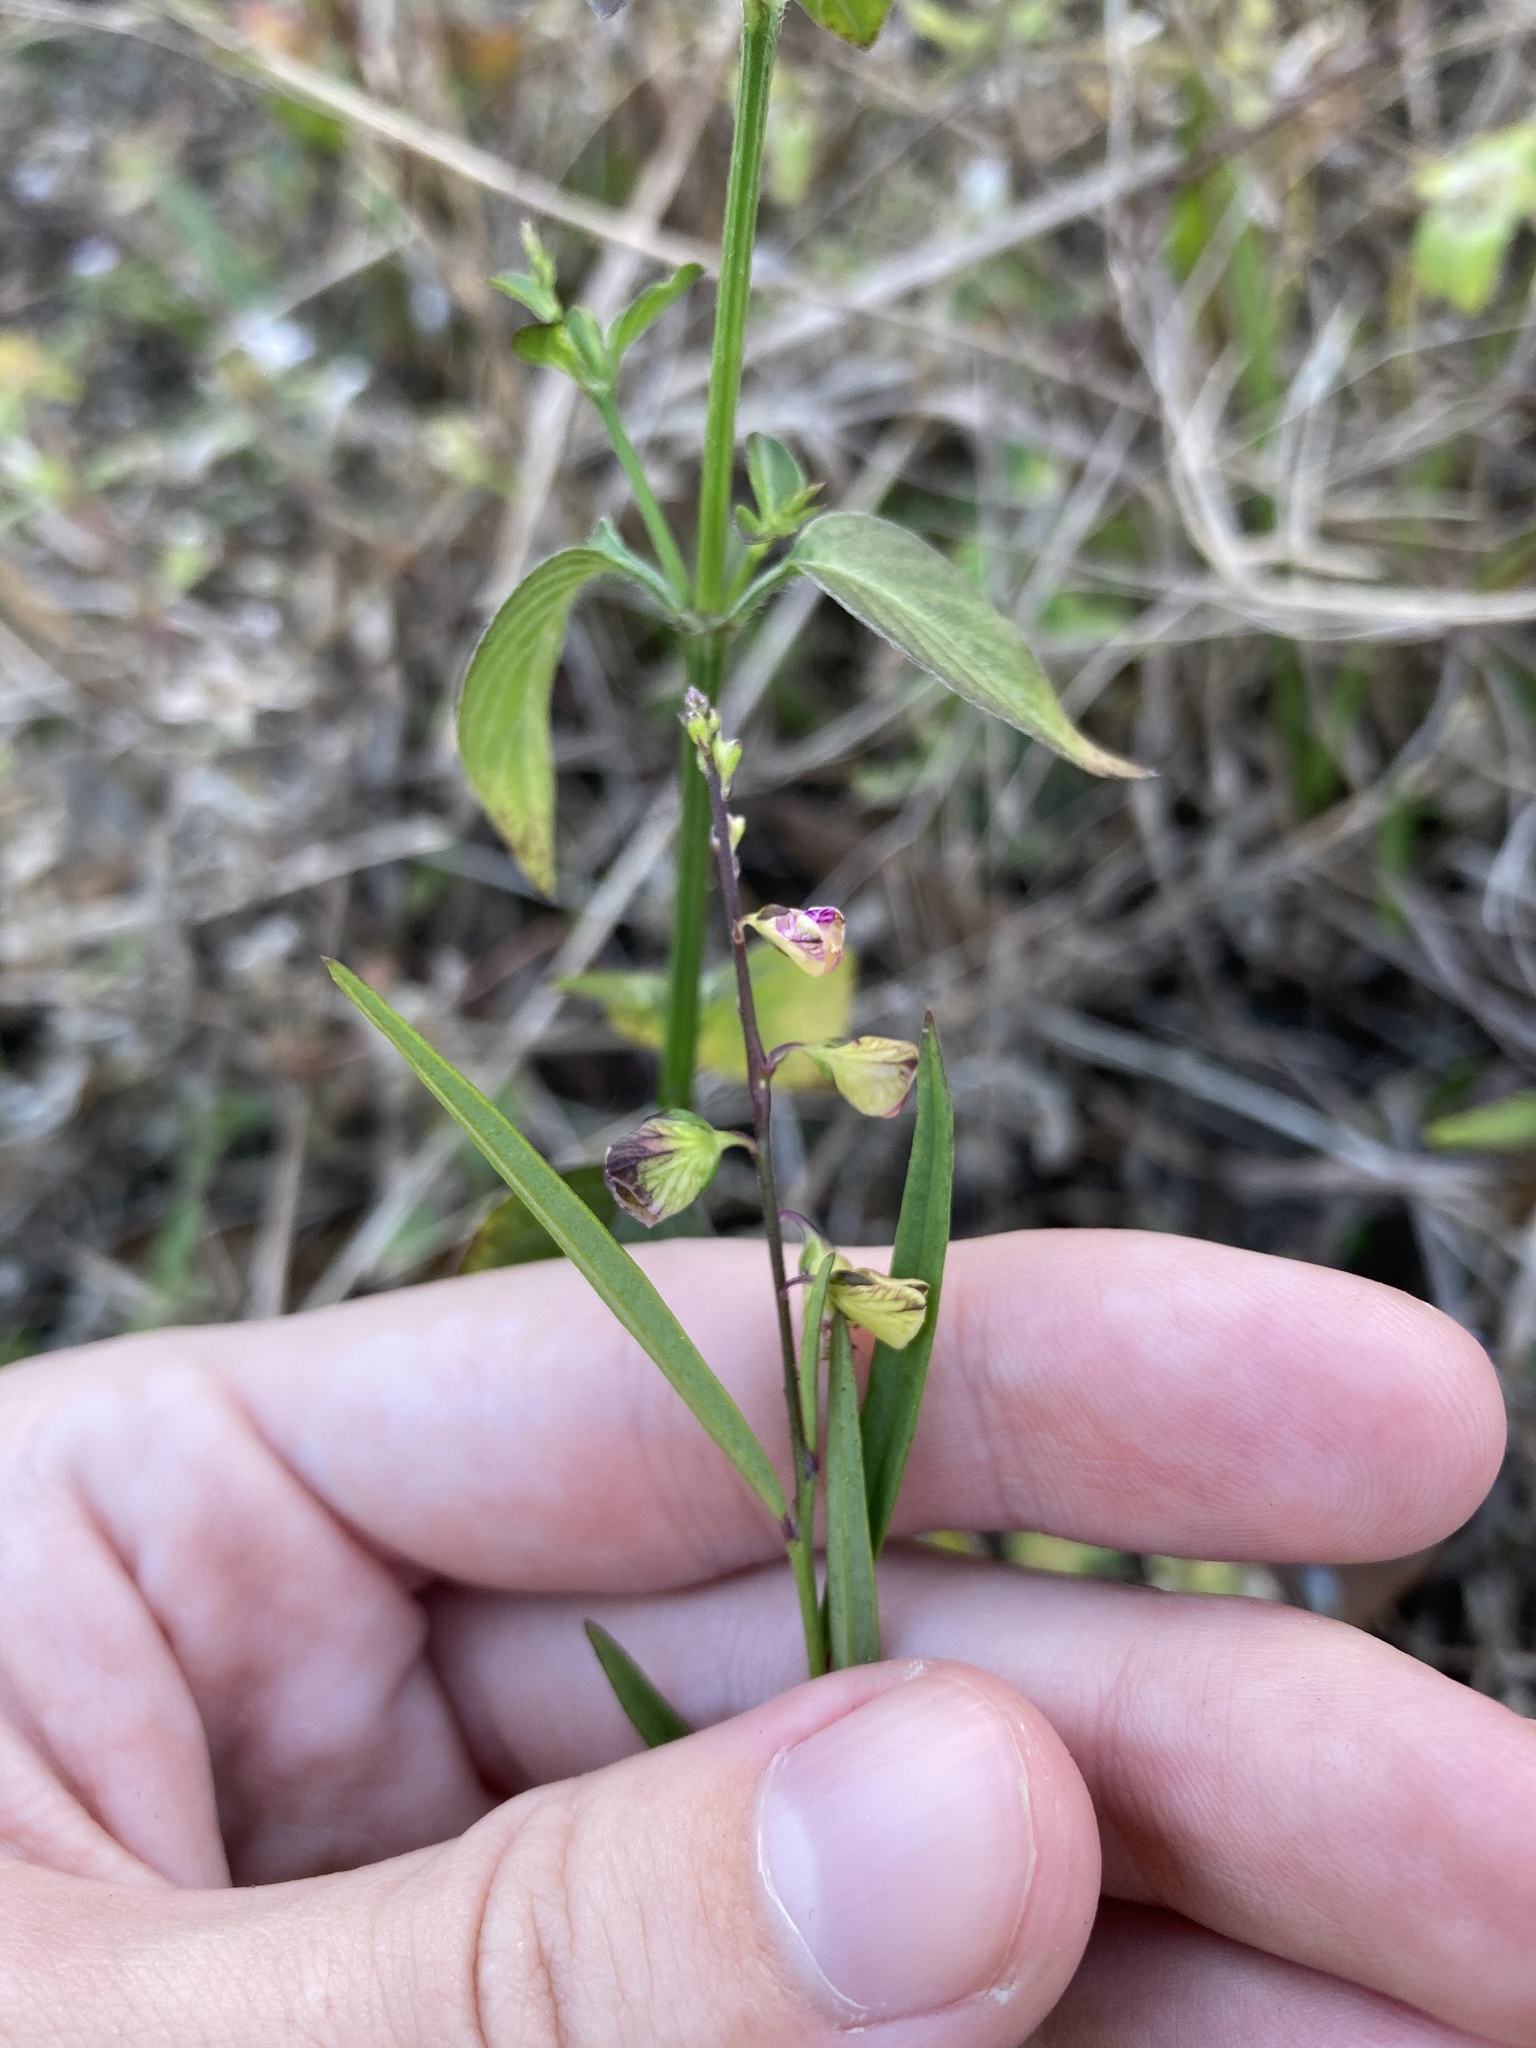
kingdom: Plantae
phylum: Tracheophyta
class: Magnoliopsida
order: Fabales
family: Polygalaceae
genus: Asemeia
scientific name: Asemeia grandiflora
